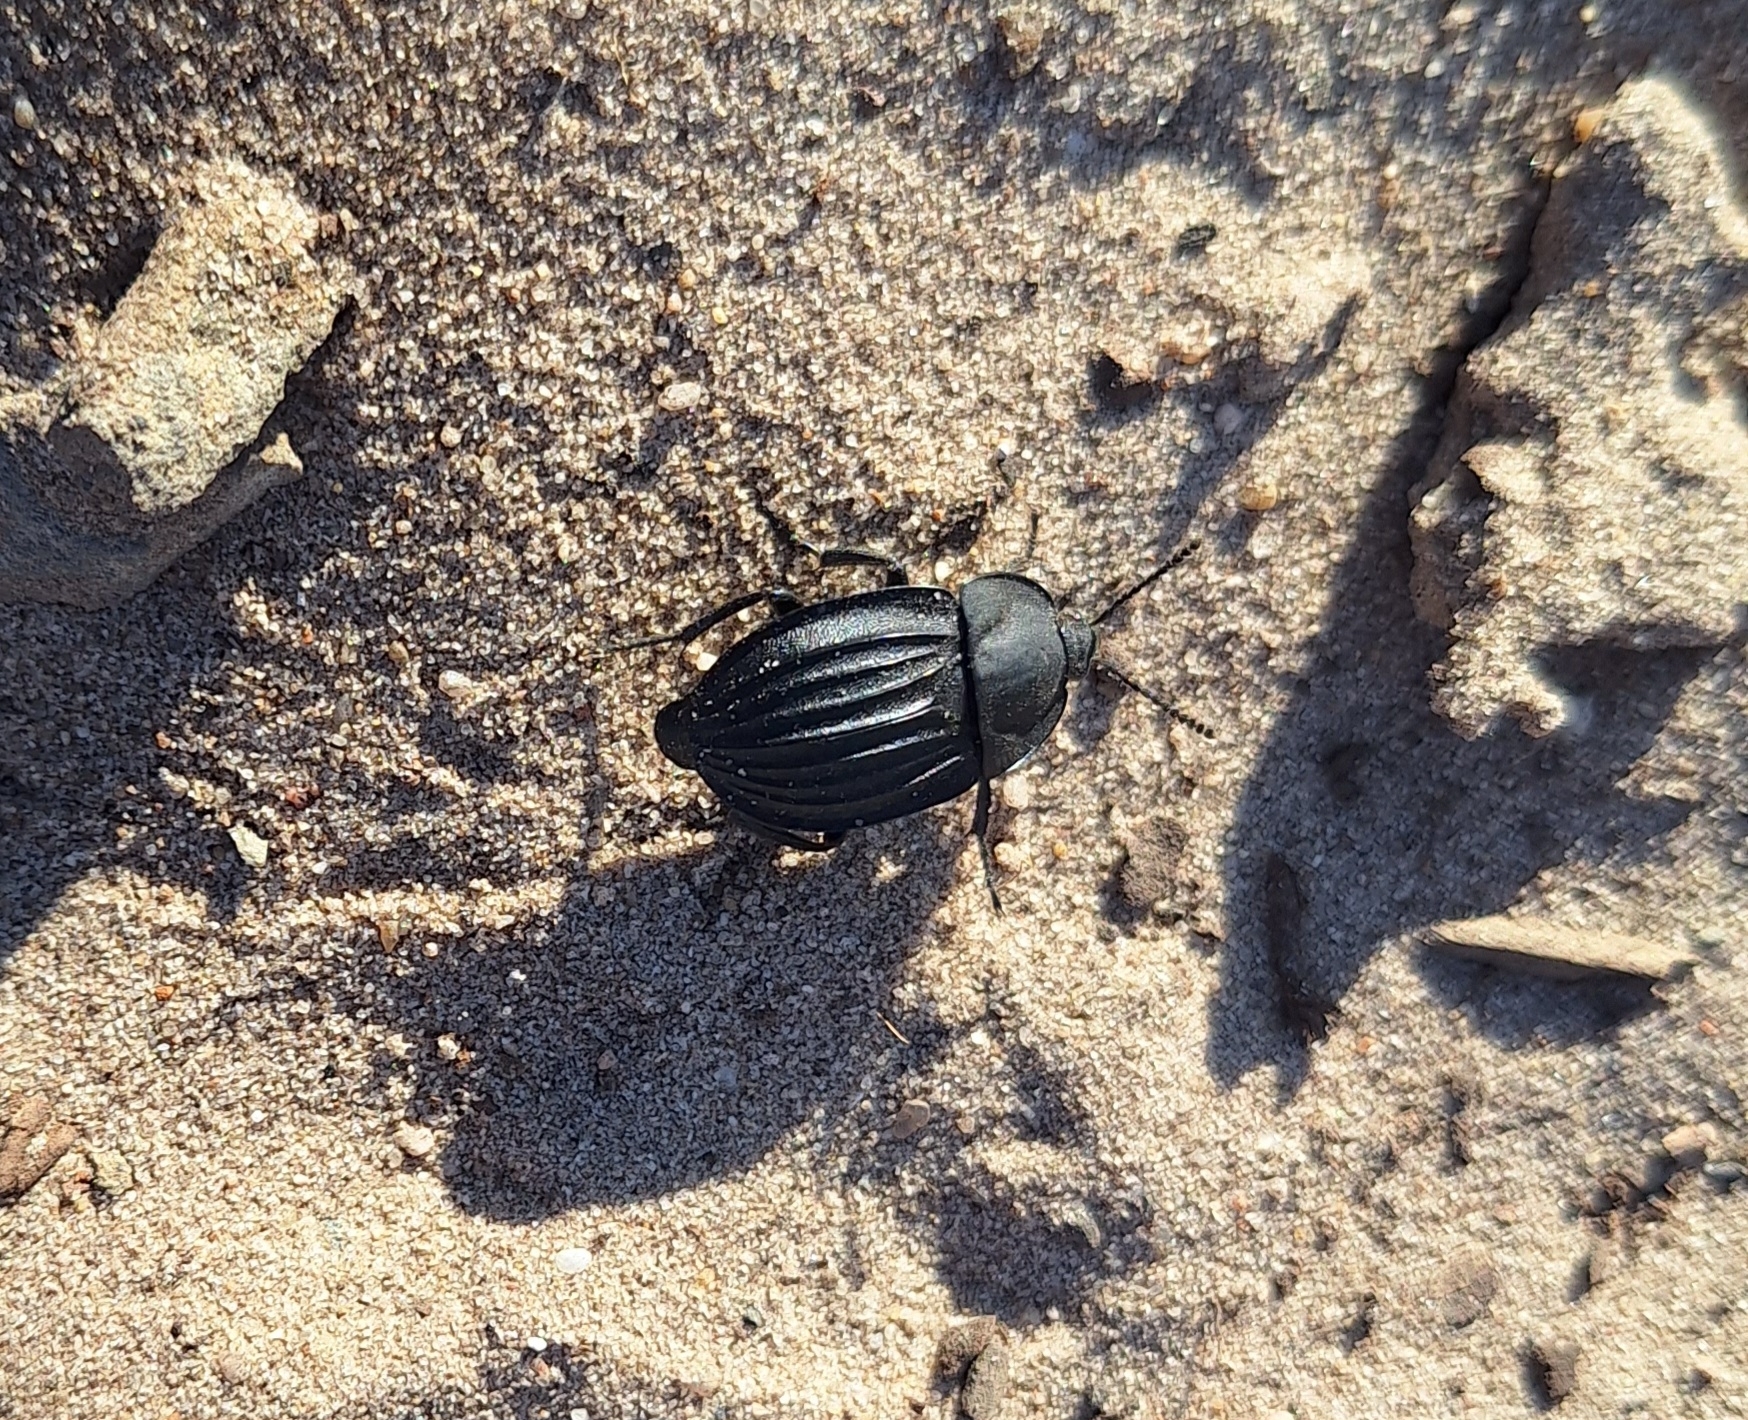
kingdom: Animalia
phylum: Arthropoda
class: Insecta
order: Coleoptera
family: Staphylinidae
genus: Silpha
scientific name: Silpha capicola
